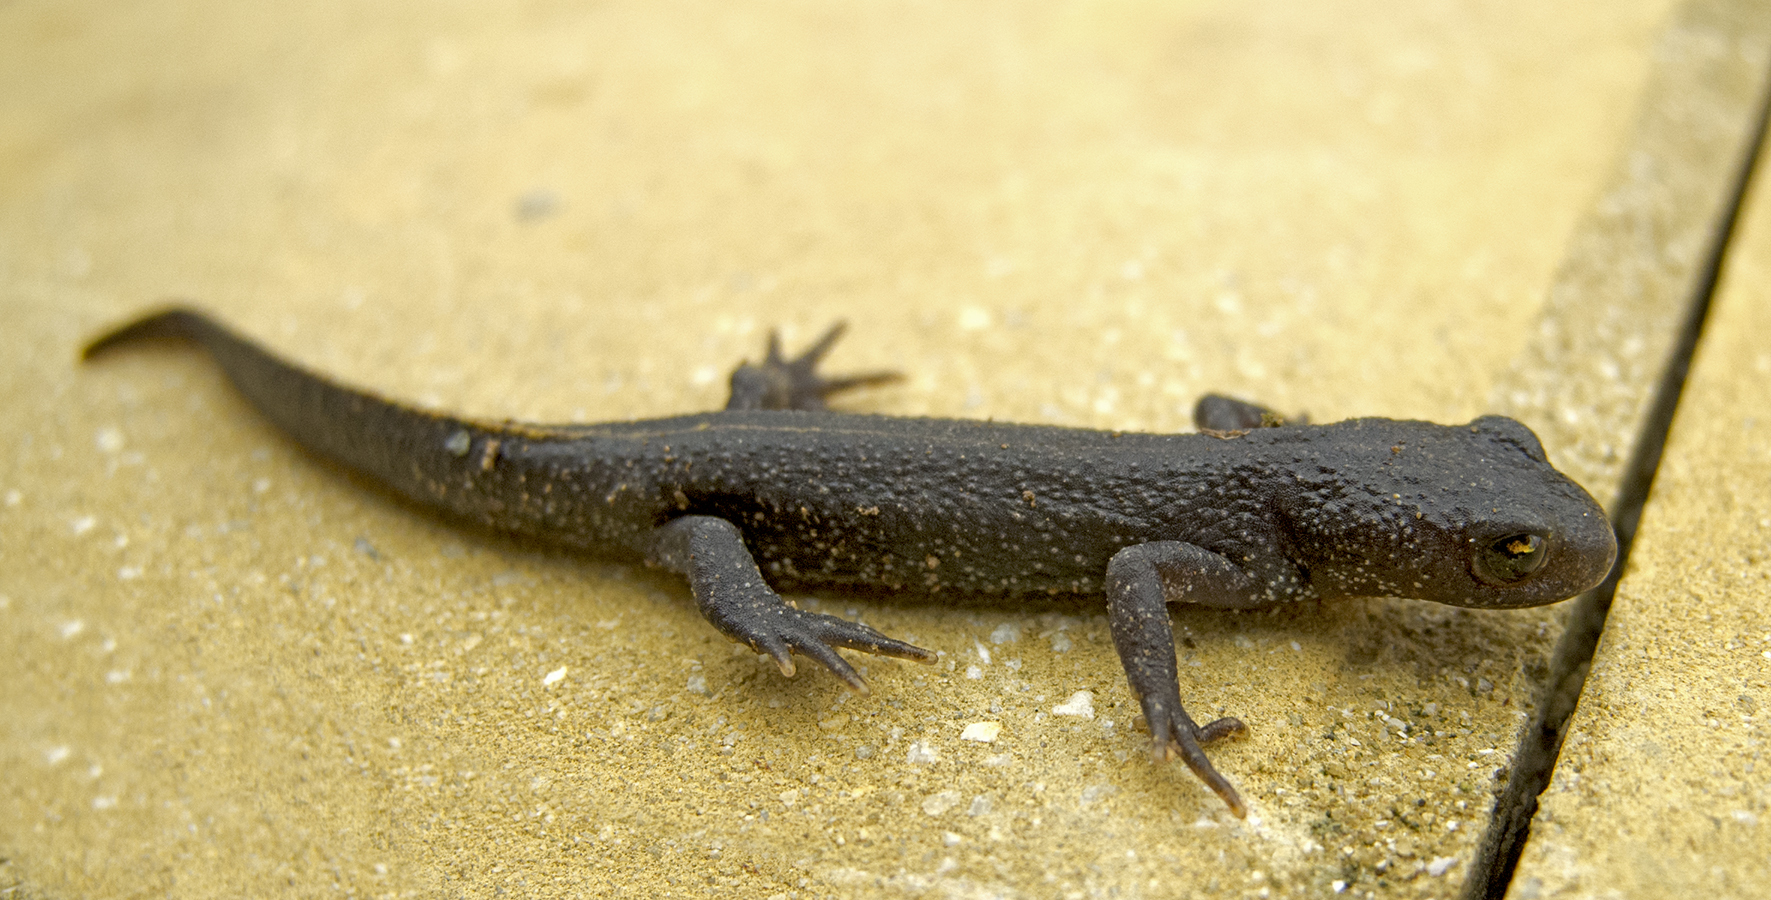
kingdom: Animalia
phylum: Chordata
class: Amphibia
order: Caudata
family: Salamandridae
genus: Triturus
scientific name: Triturus ivanbureschi
